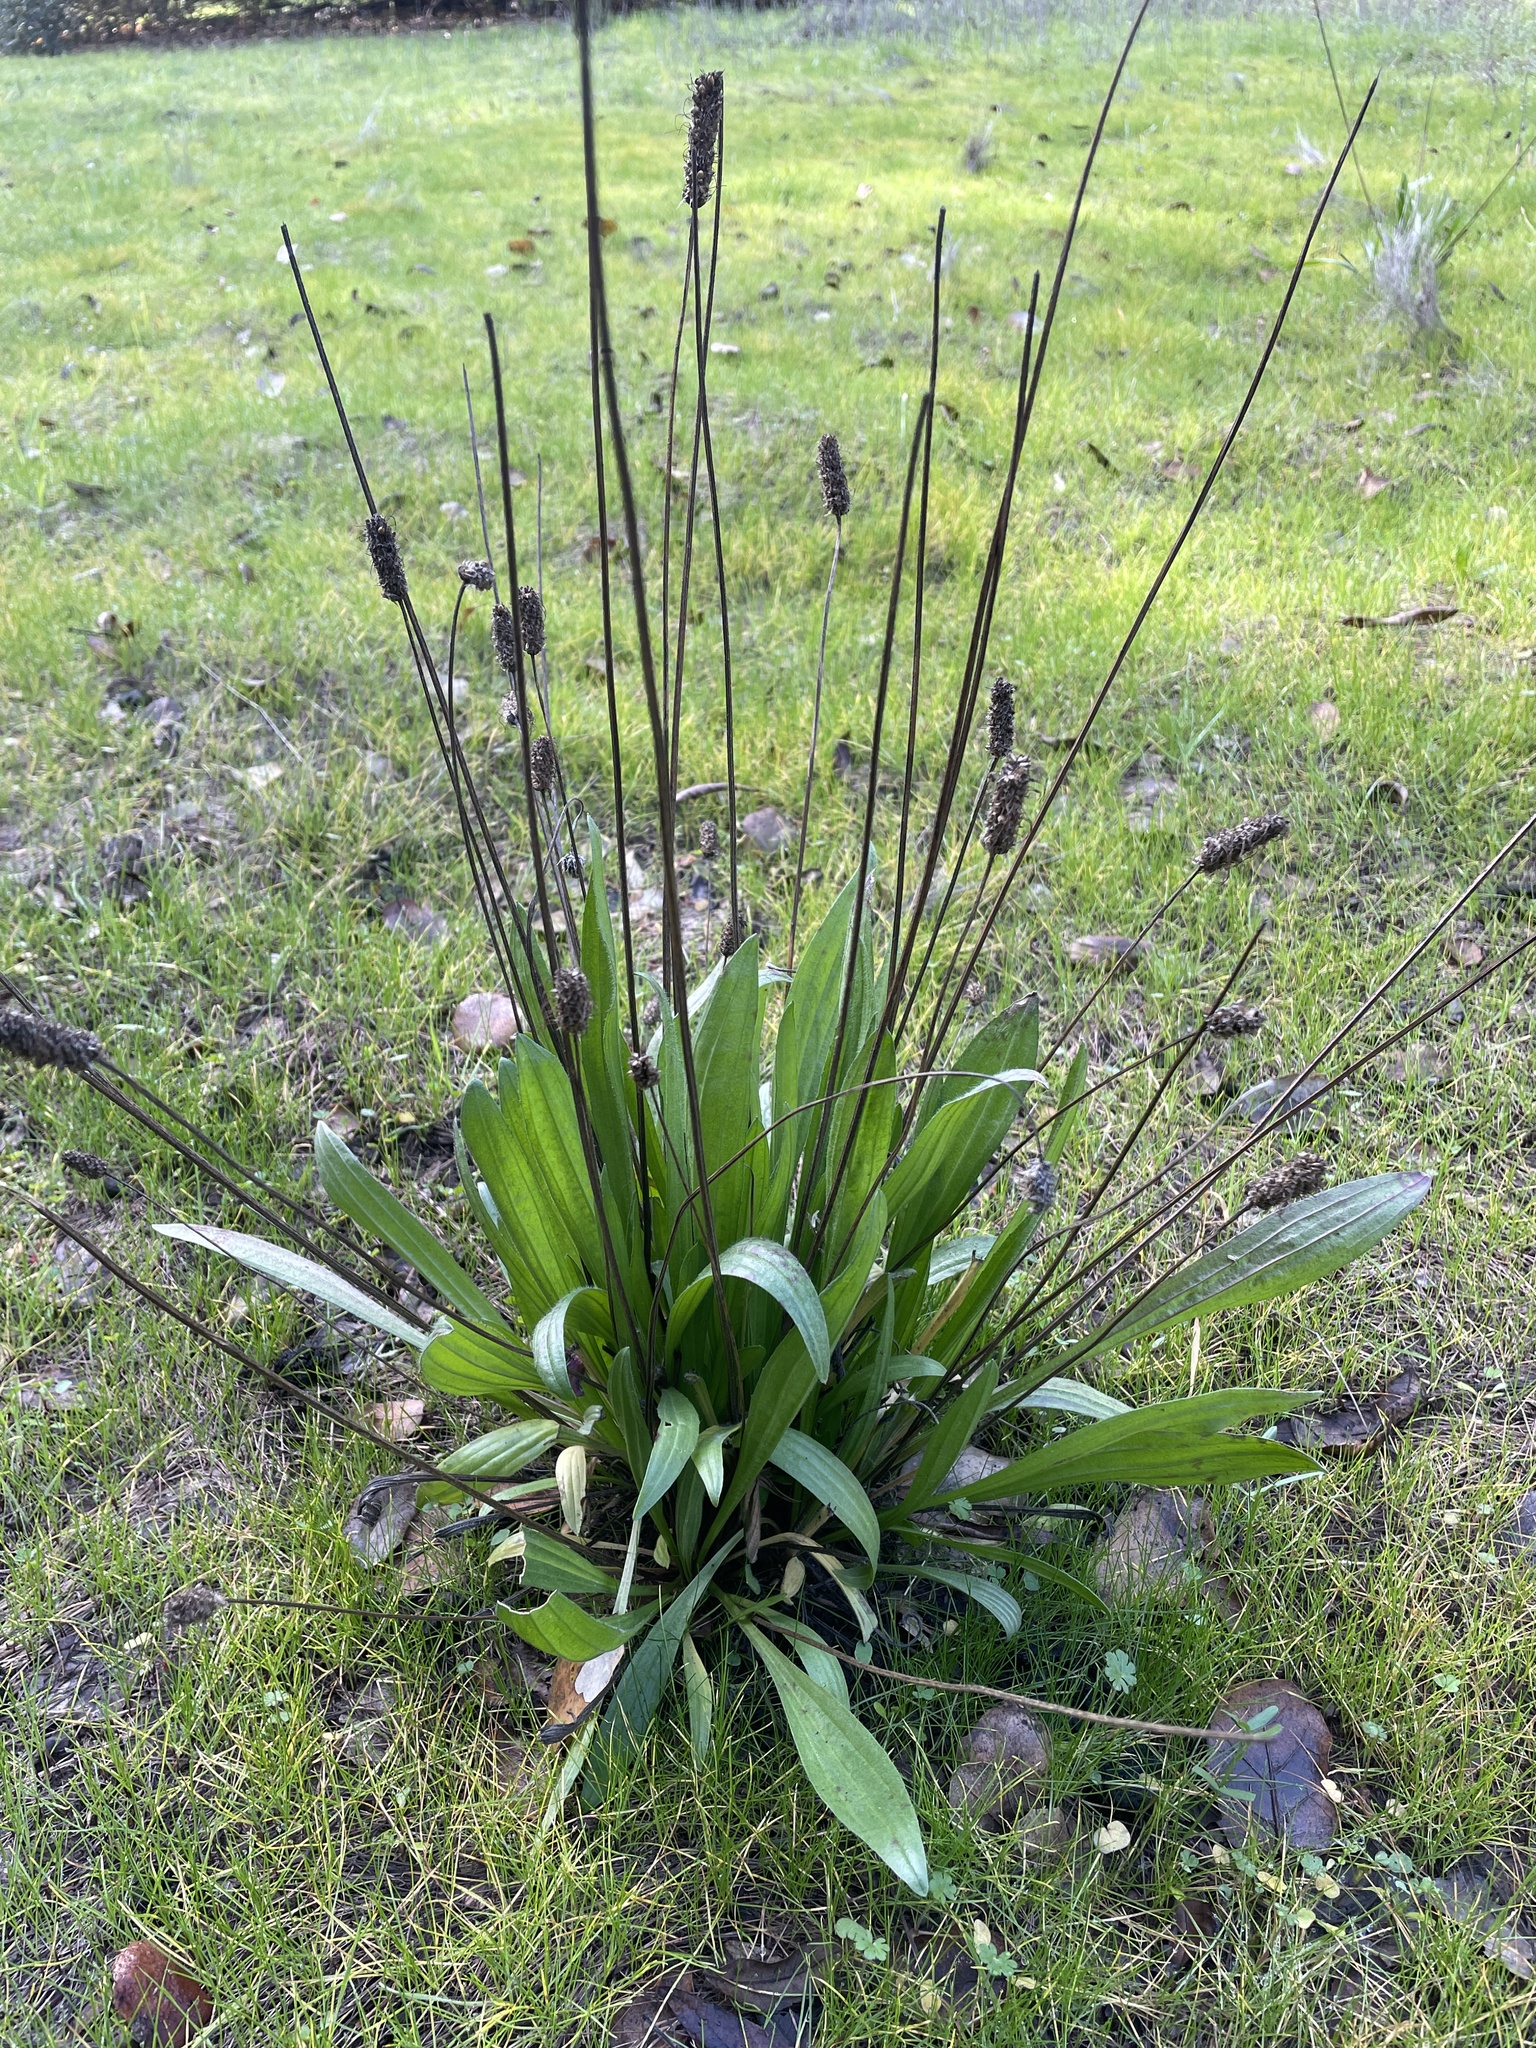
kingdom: Plantae
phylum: Tracheophyta
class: Magnoliopsida
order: Lamiales
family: Plantaginaceae
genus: Plantago
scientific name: Plantago lanceolata
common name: Ribwort plantain
